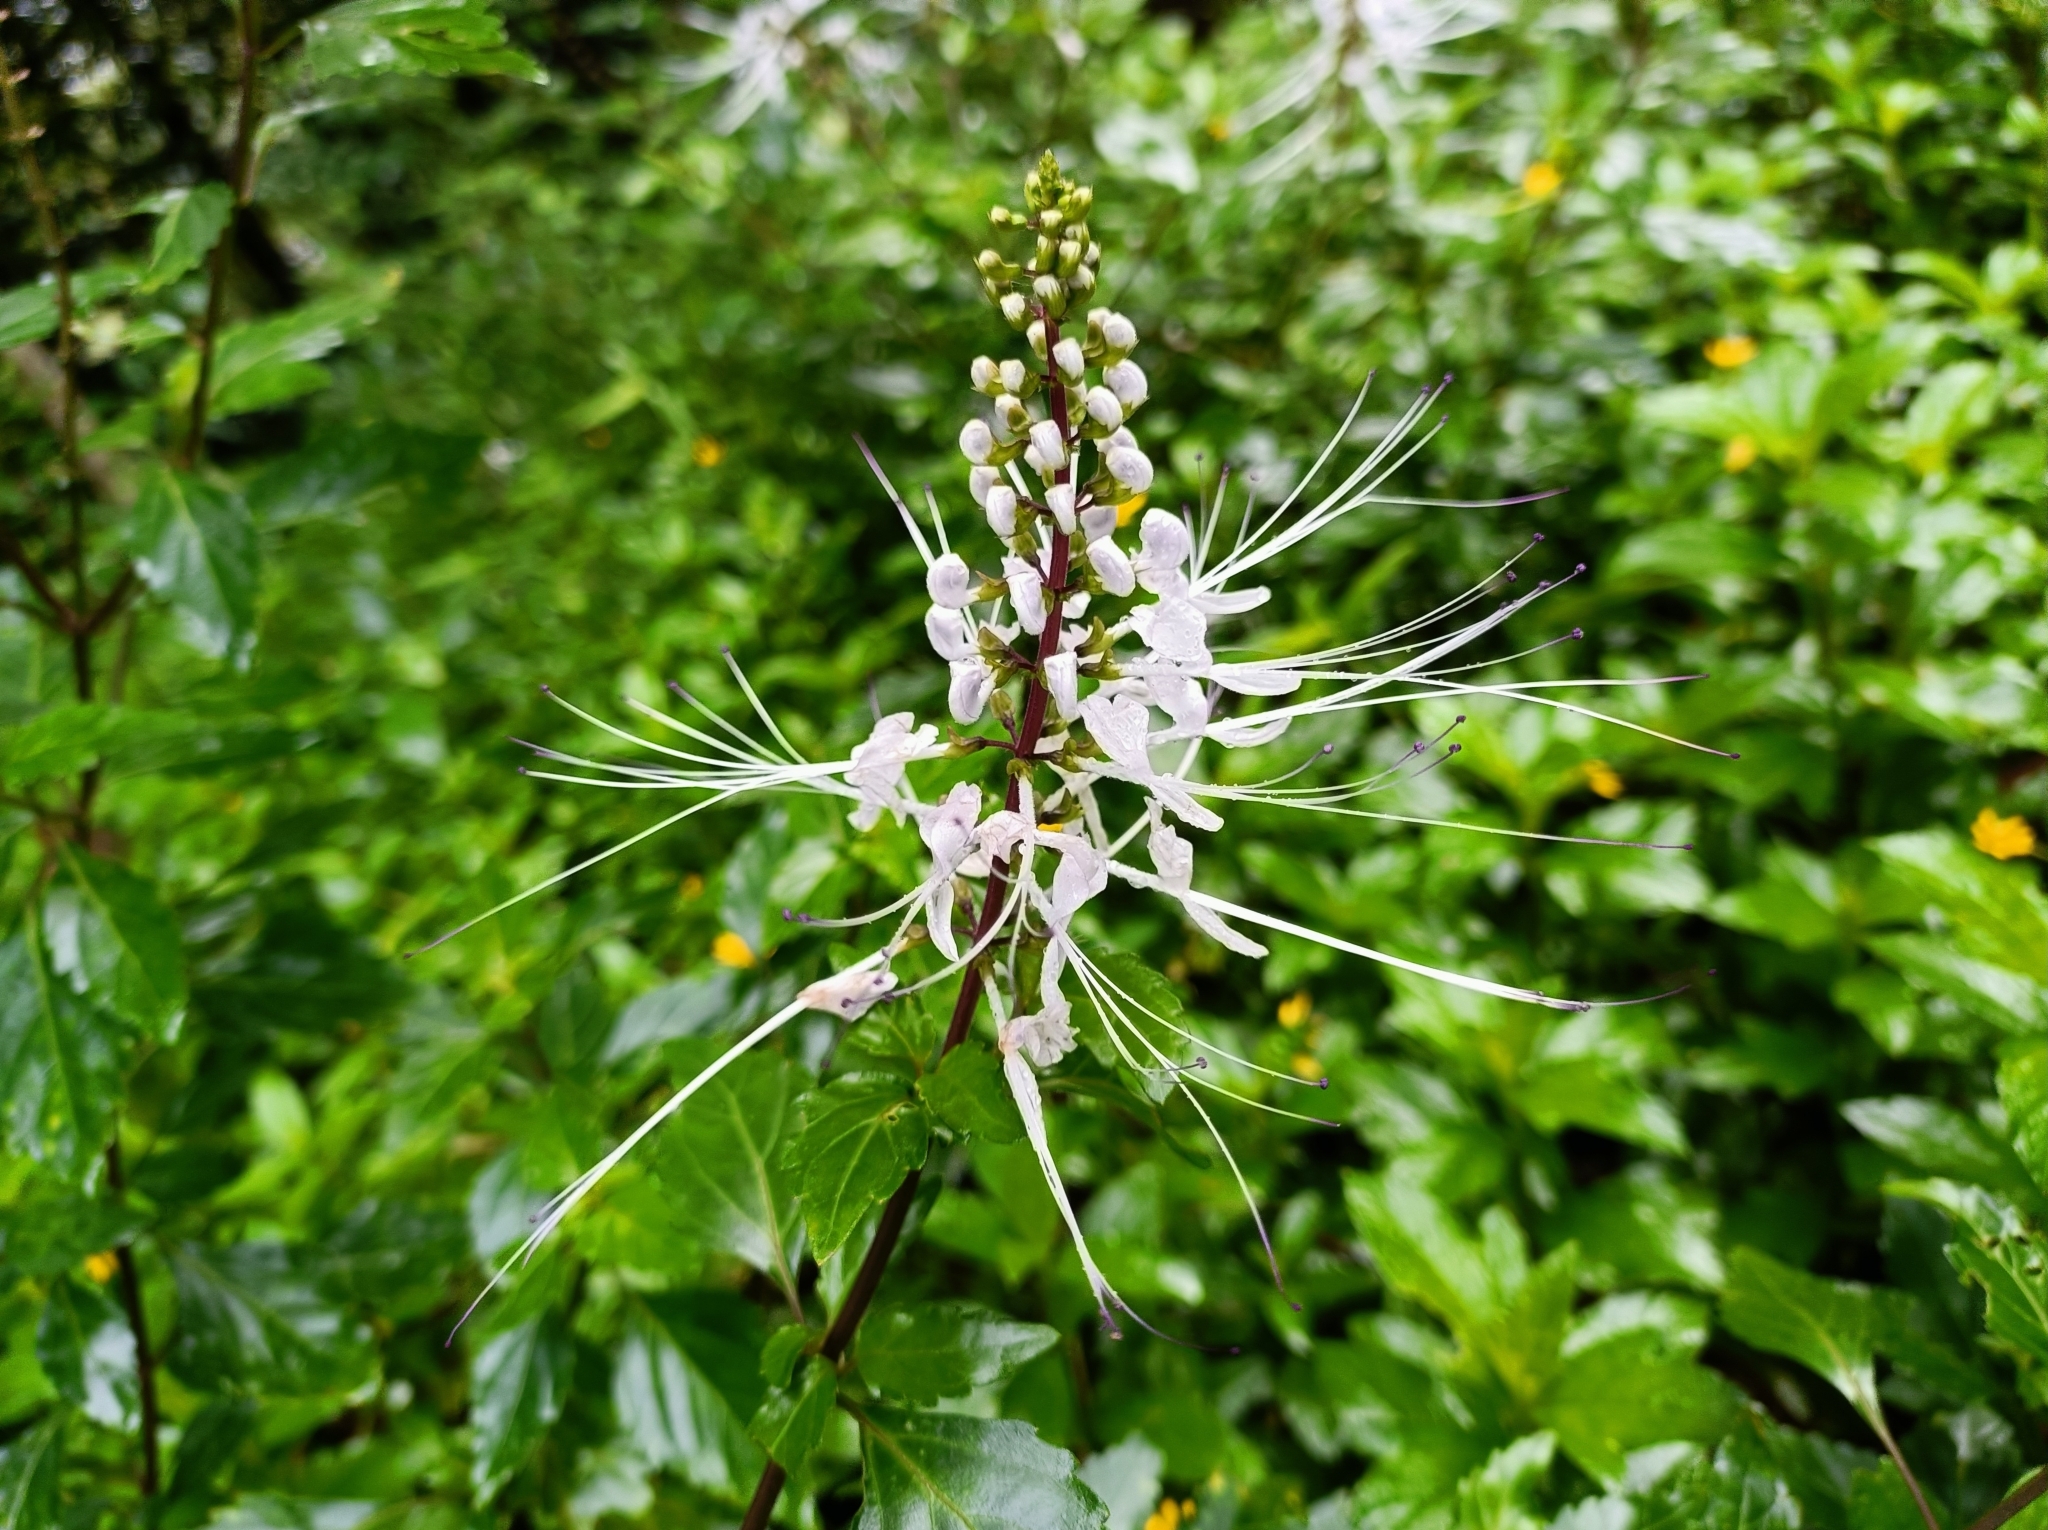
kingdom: Plantae
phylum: Tracheophyta
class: Magnoliopsida
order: Lamiales
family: Lamiaceae
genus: Orthosiphon
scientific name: Orthosiphon aristatus
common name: Whiskerplant
